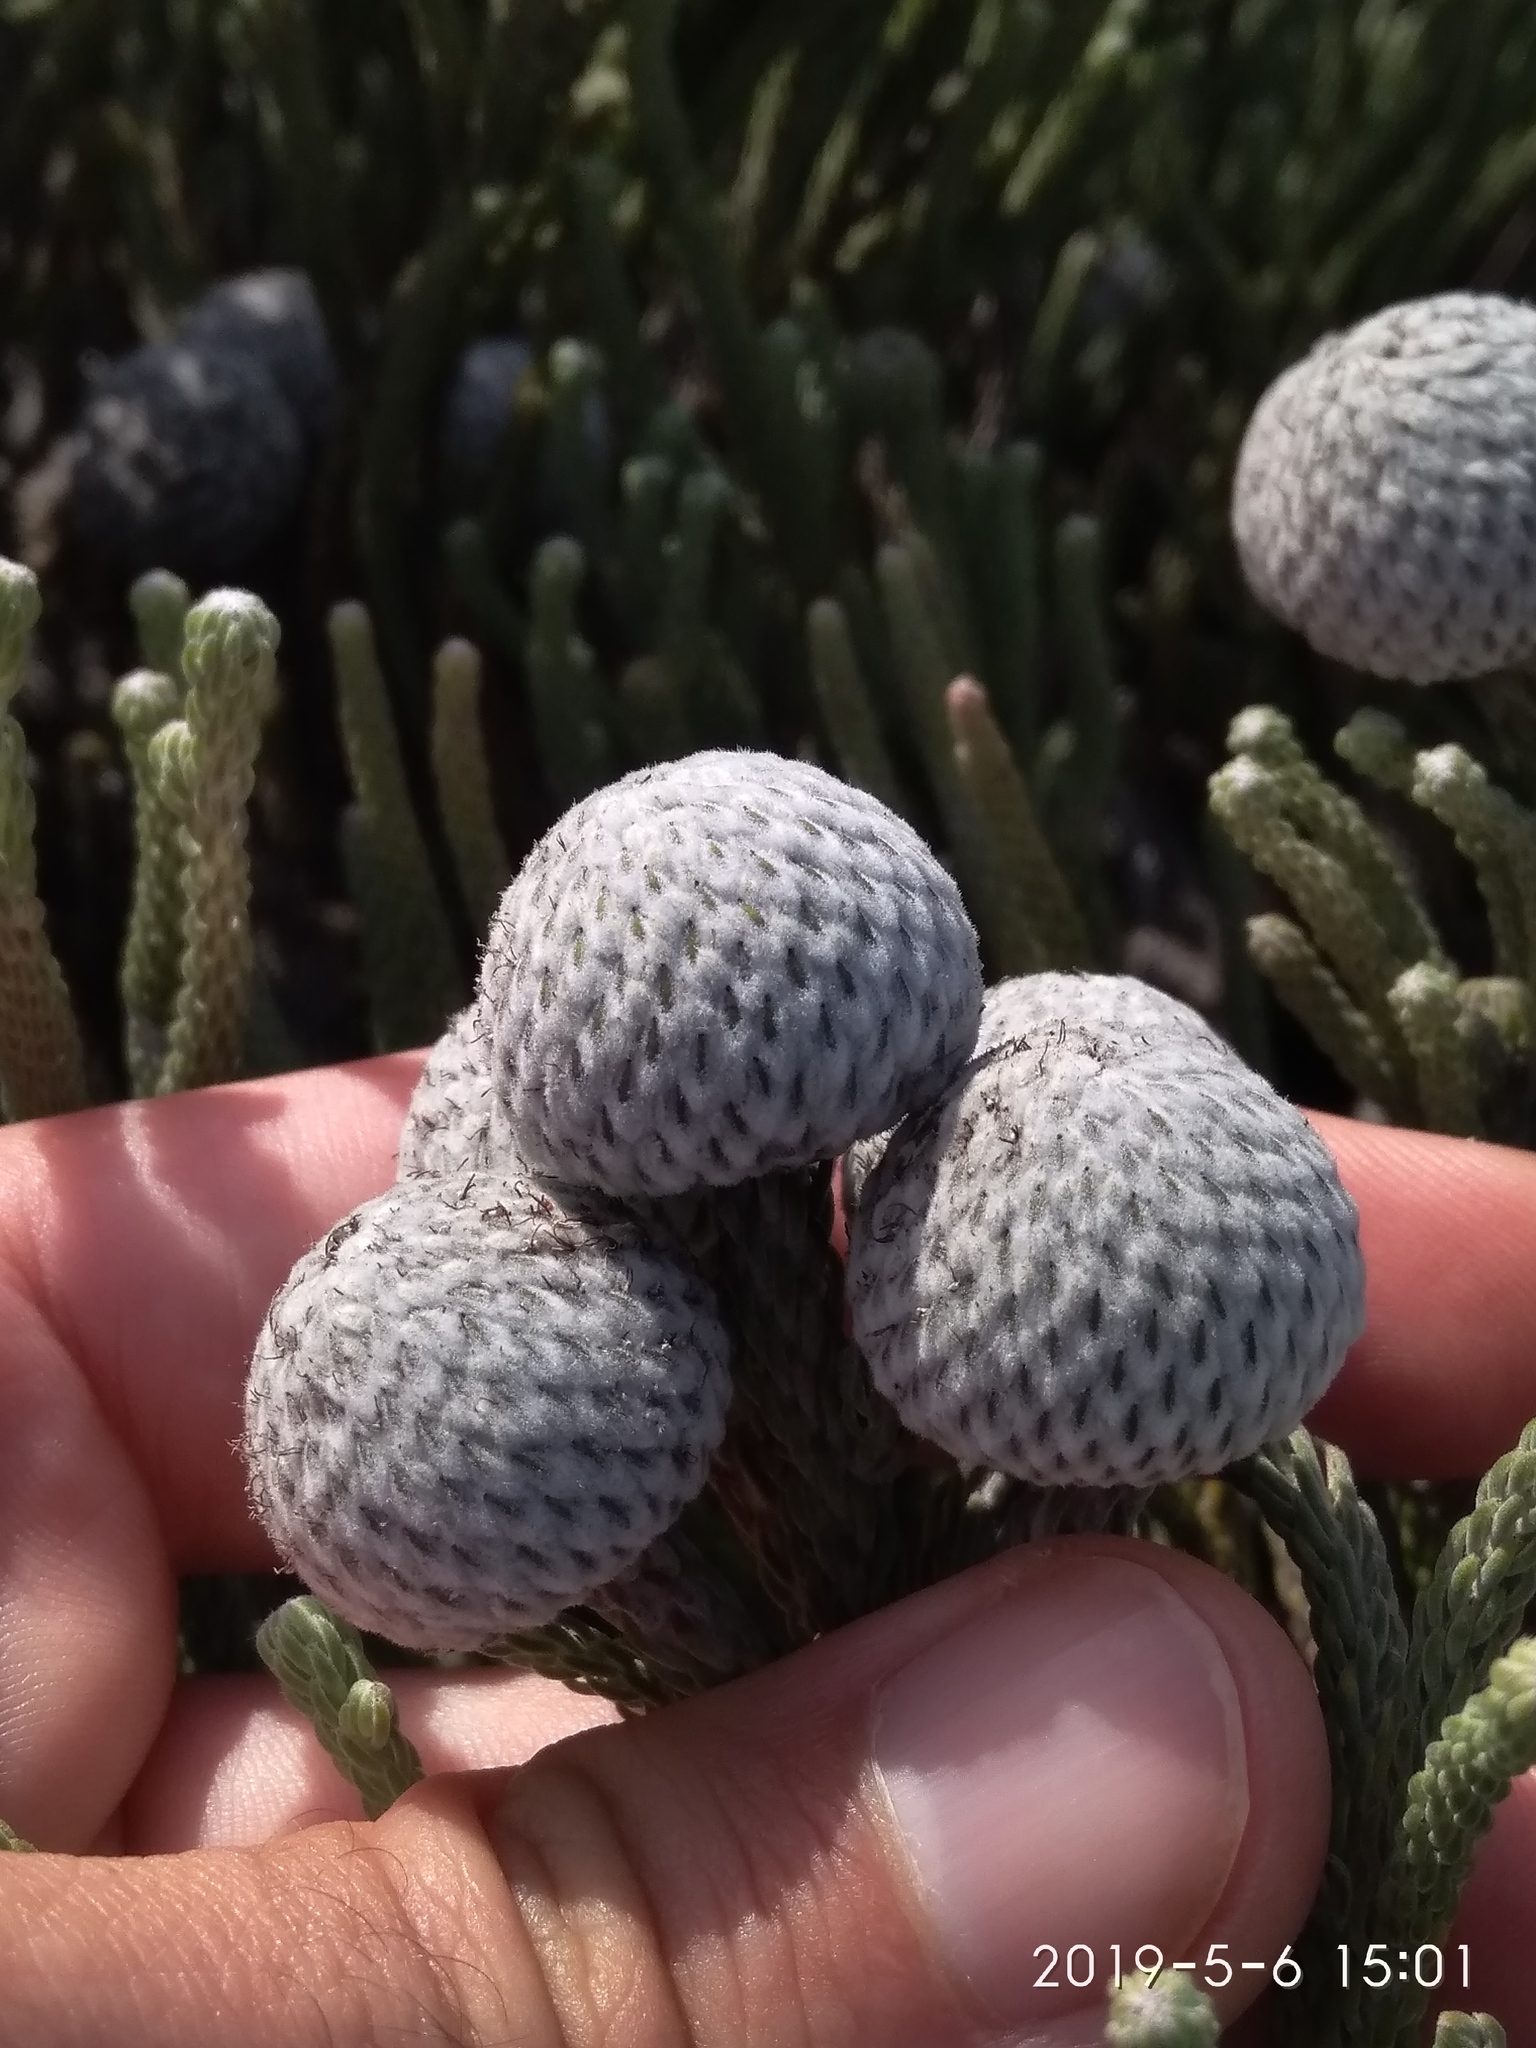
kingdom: Plantae
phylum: Tracheophyta
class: Magnoliopsida
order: Bruniales
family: Bruniaceae
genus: Brunia
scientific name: Brunia laevis
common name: Silver brunia
